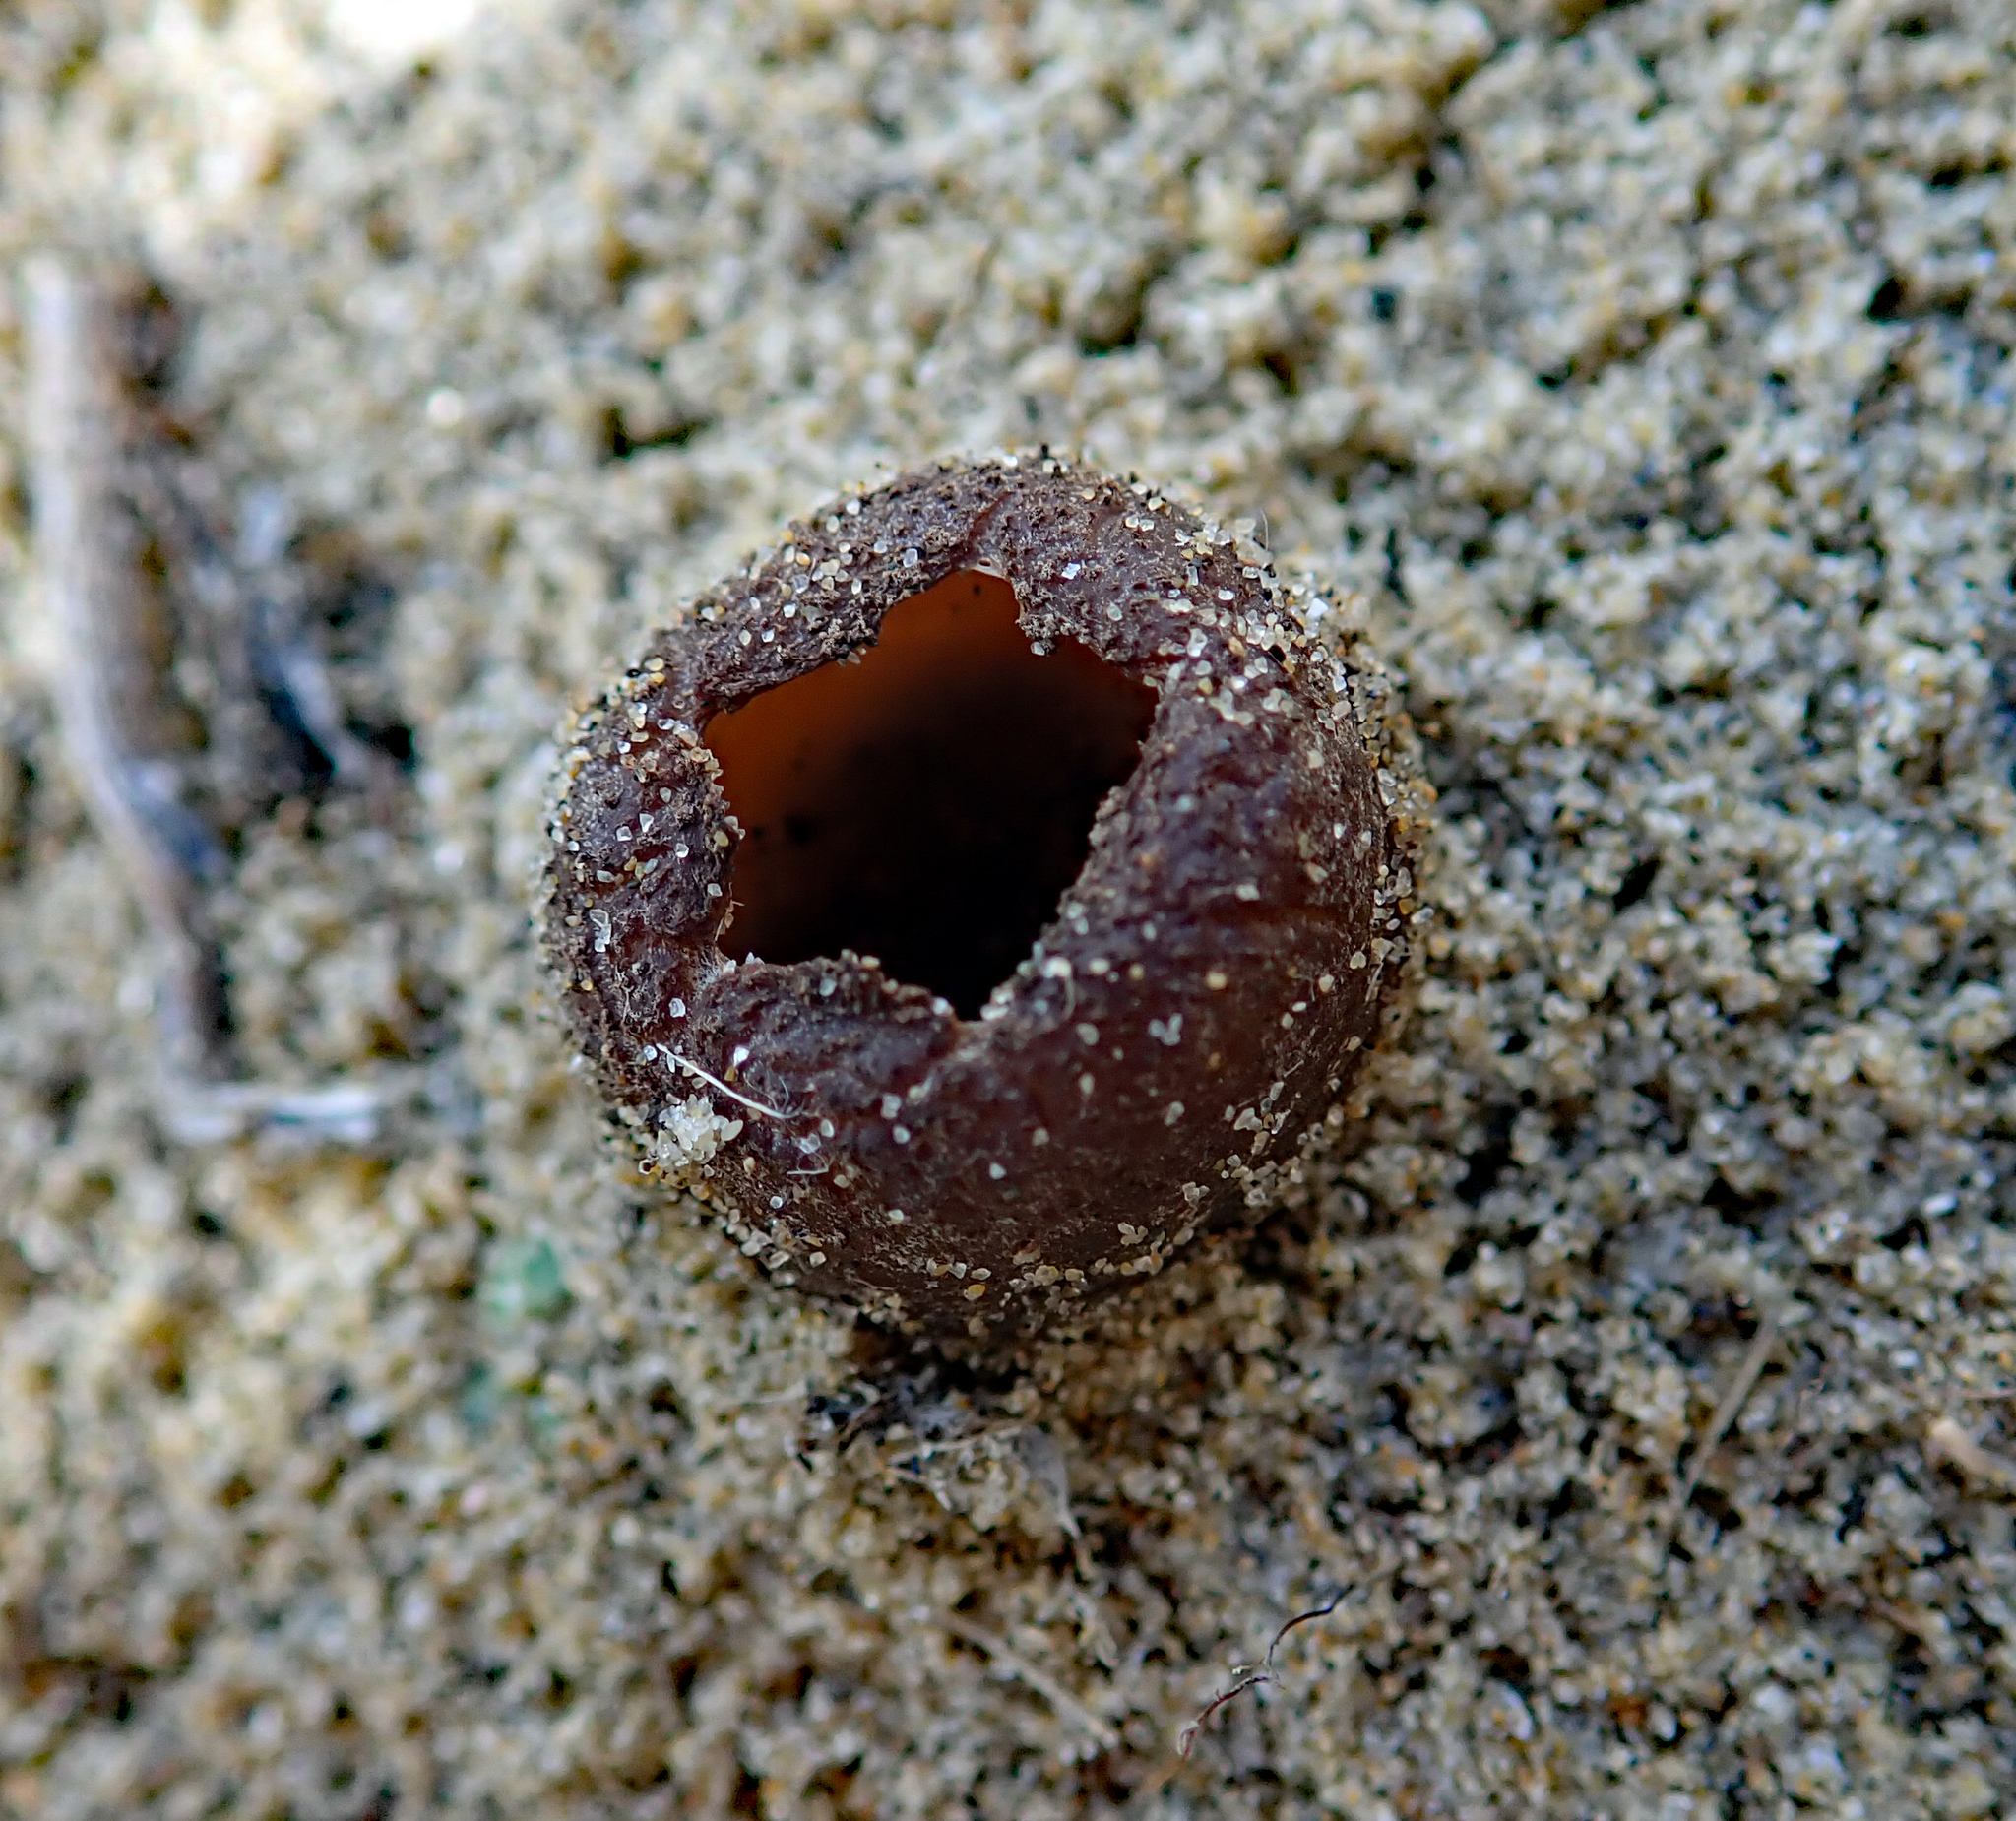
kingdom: Fungi
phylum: Ascomycota
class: Pezizomycetes
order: Pezizales
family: Pezizaceae
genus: Peziza
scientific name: Peziza oceanica
